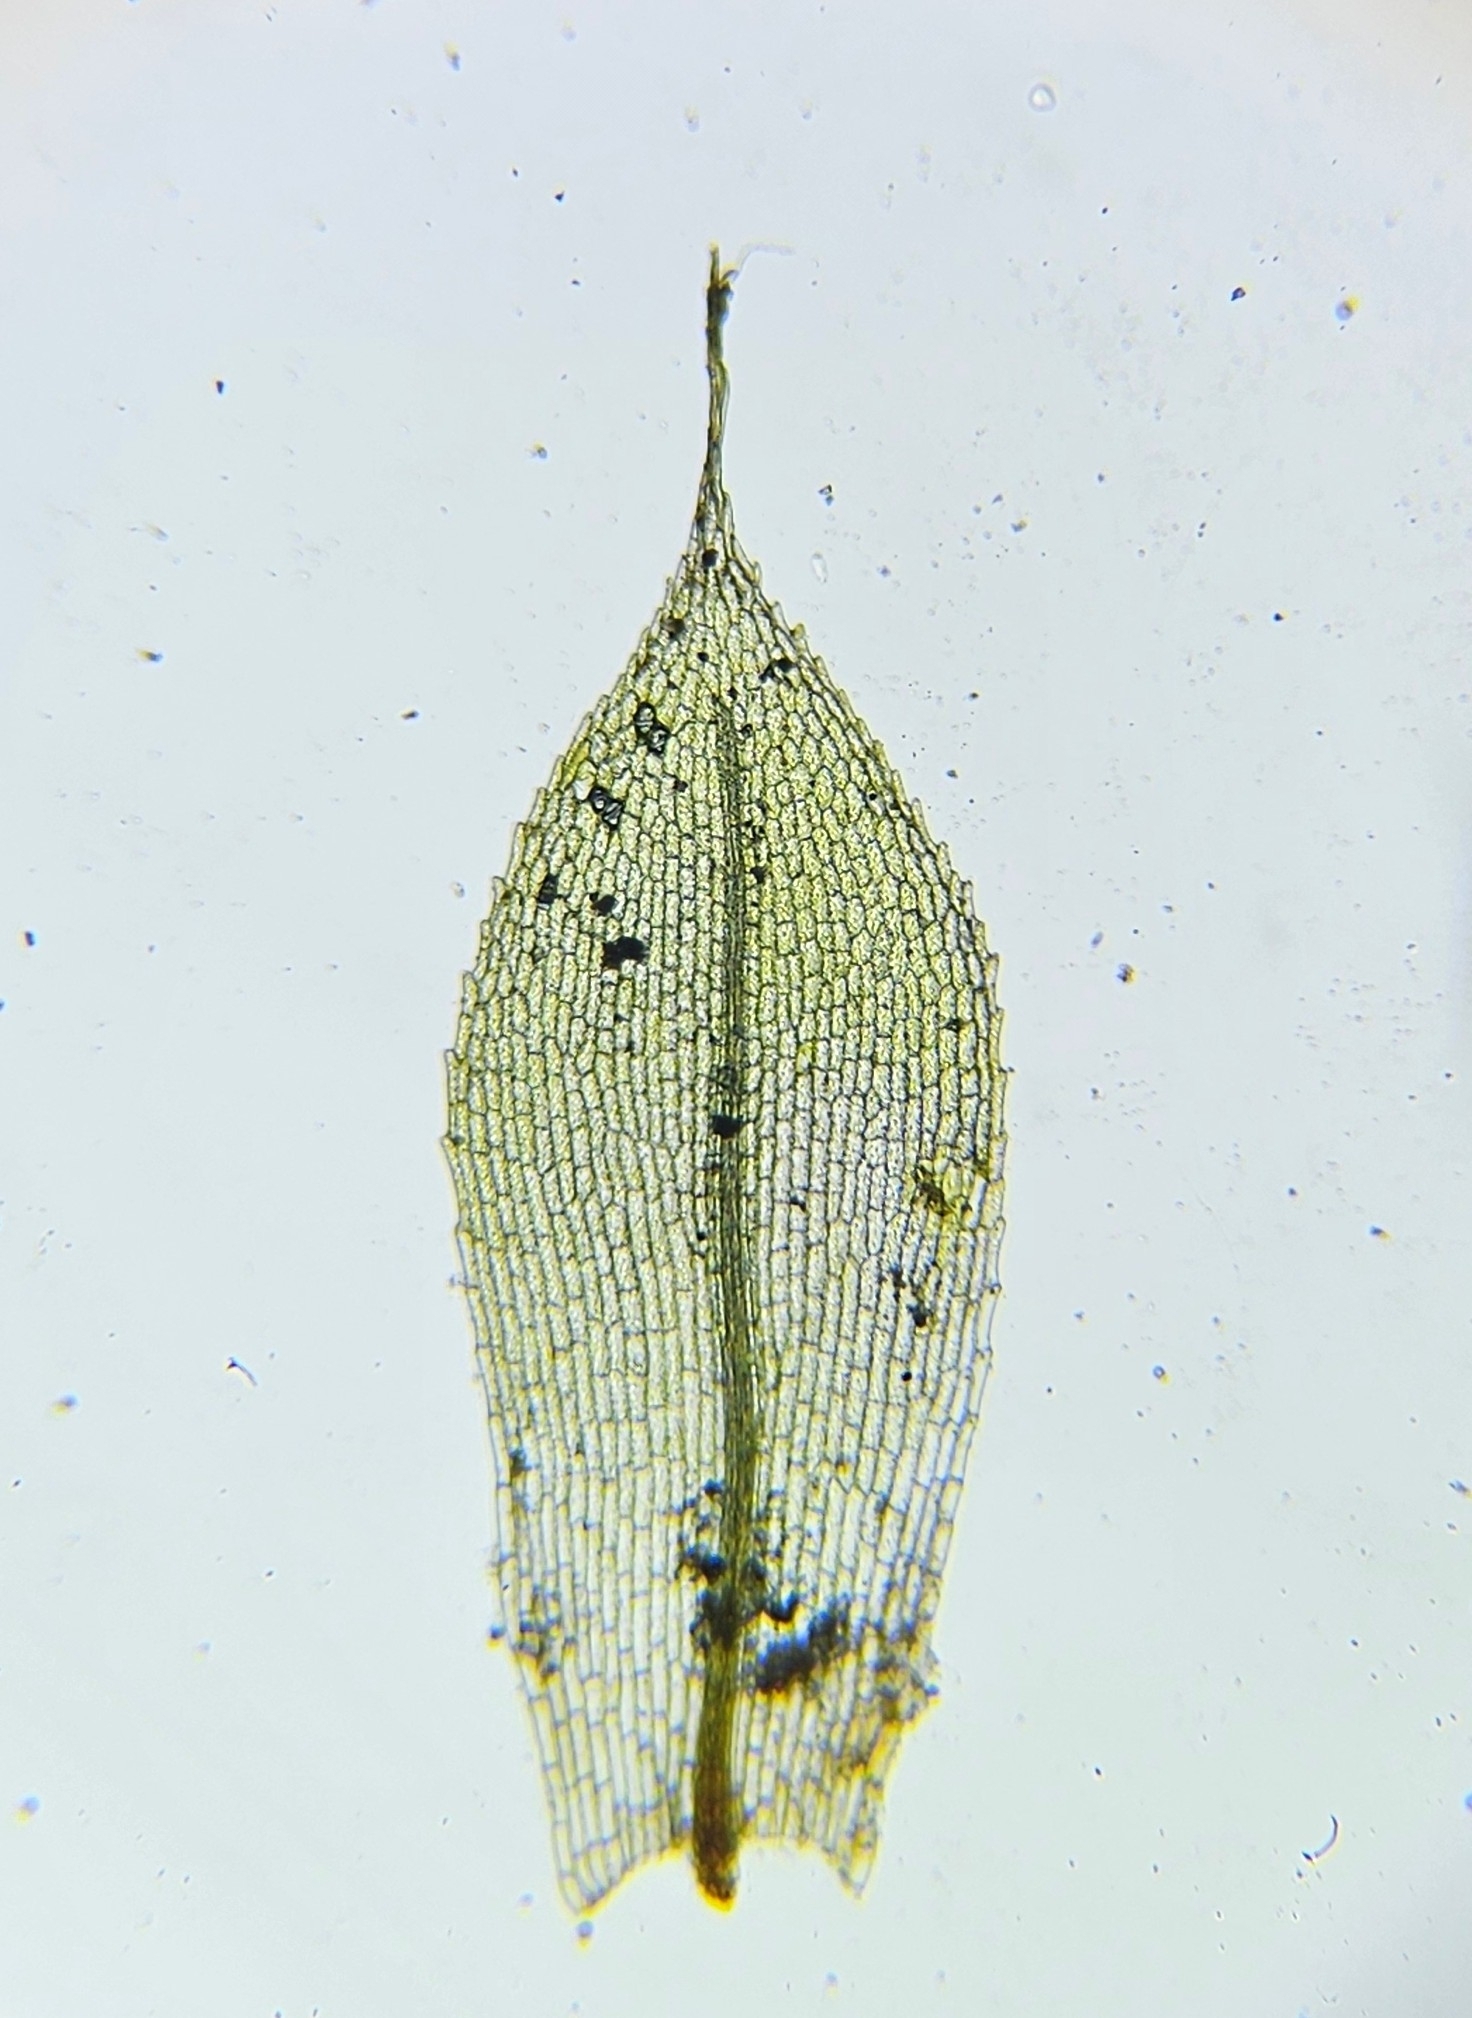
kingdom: Plantae
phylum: Bryophyta
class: Bryopsida
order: Funariales
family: Funariaceae
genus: Entosthodon
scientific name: Entosthodon muhlenbergii
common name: Muhlenberg's cord-moss
